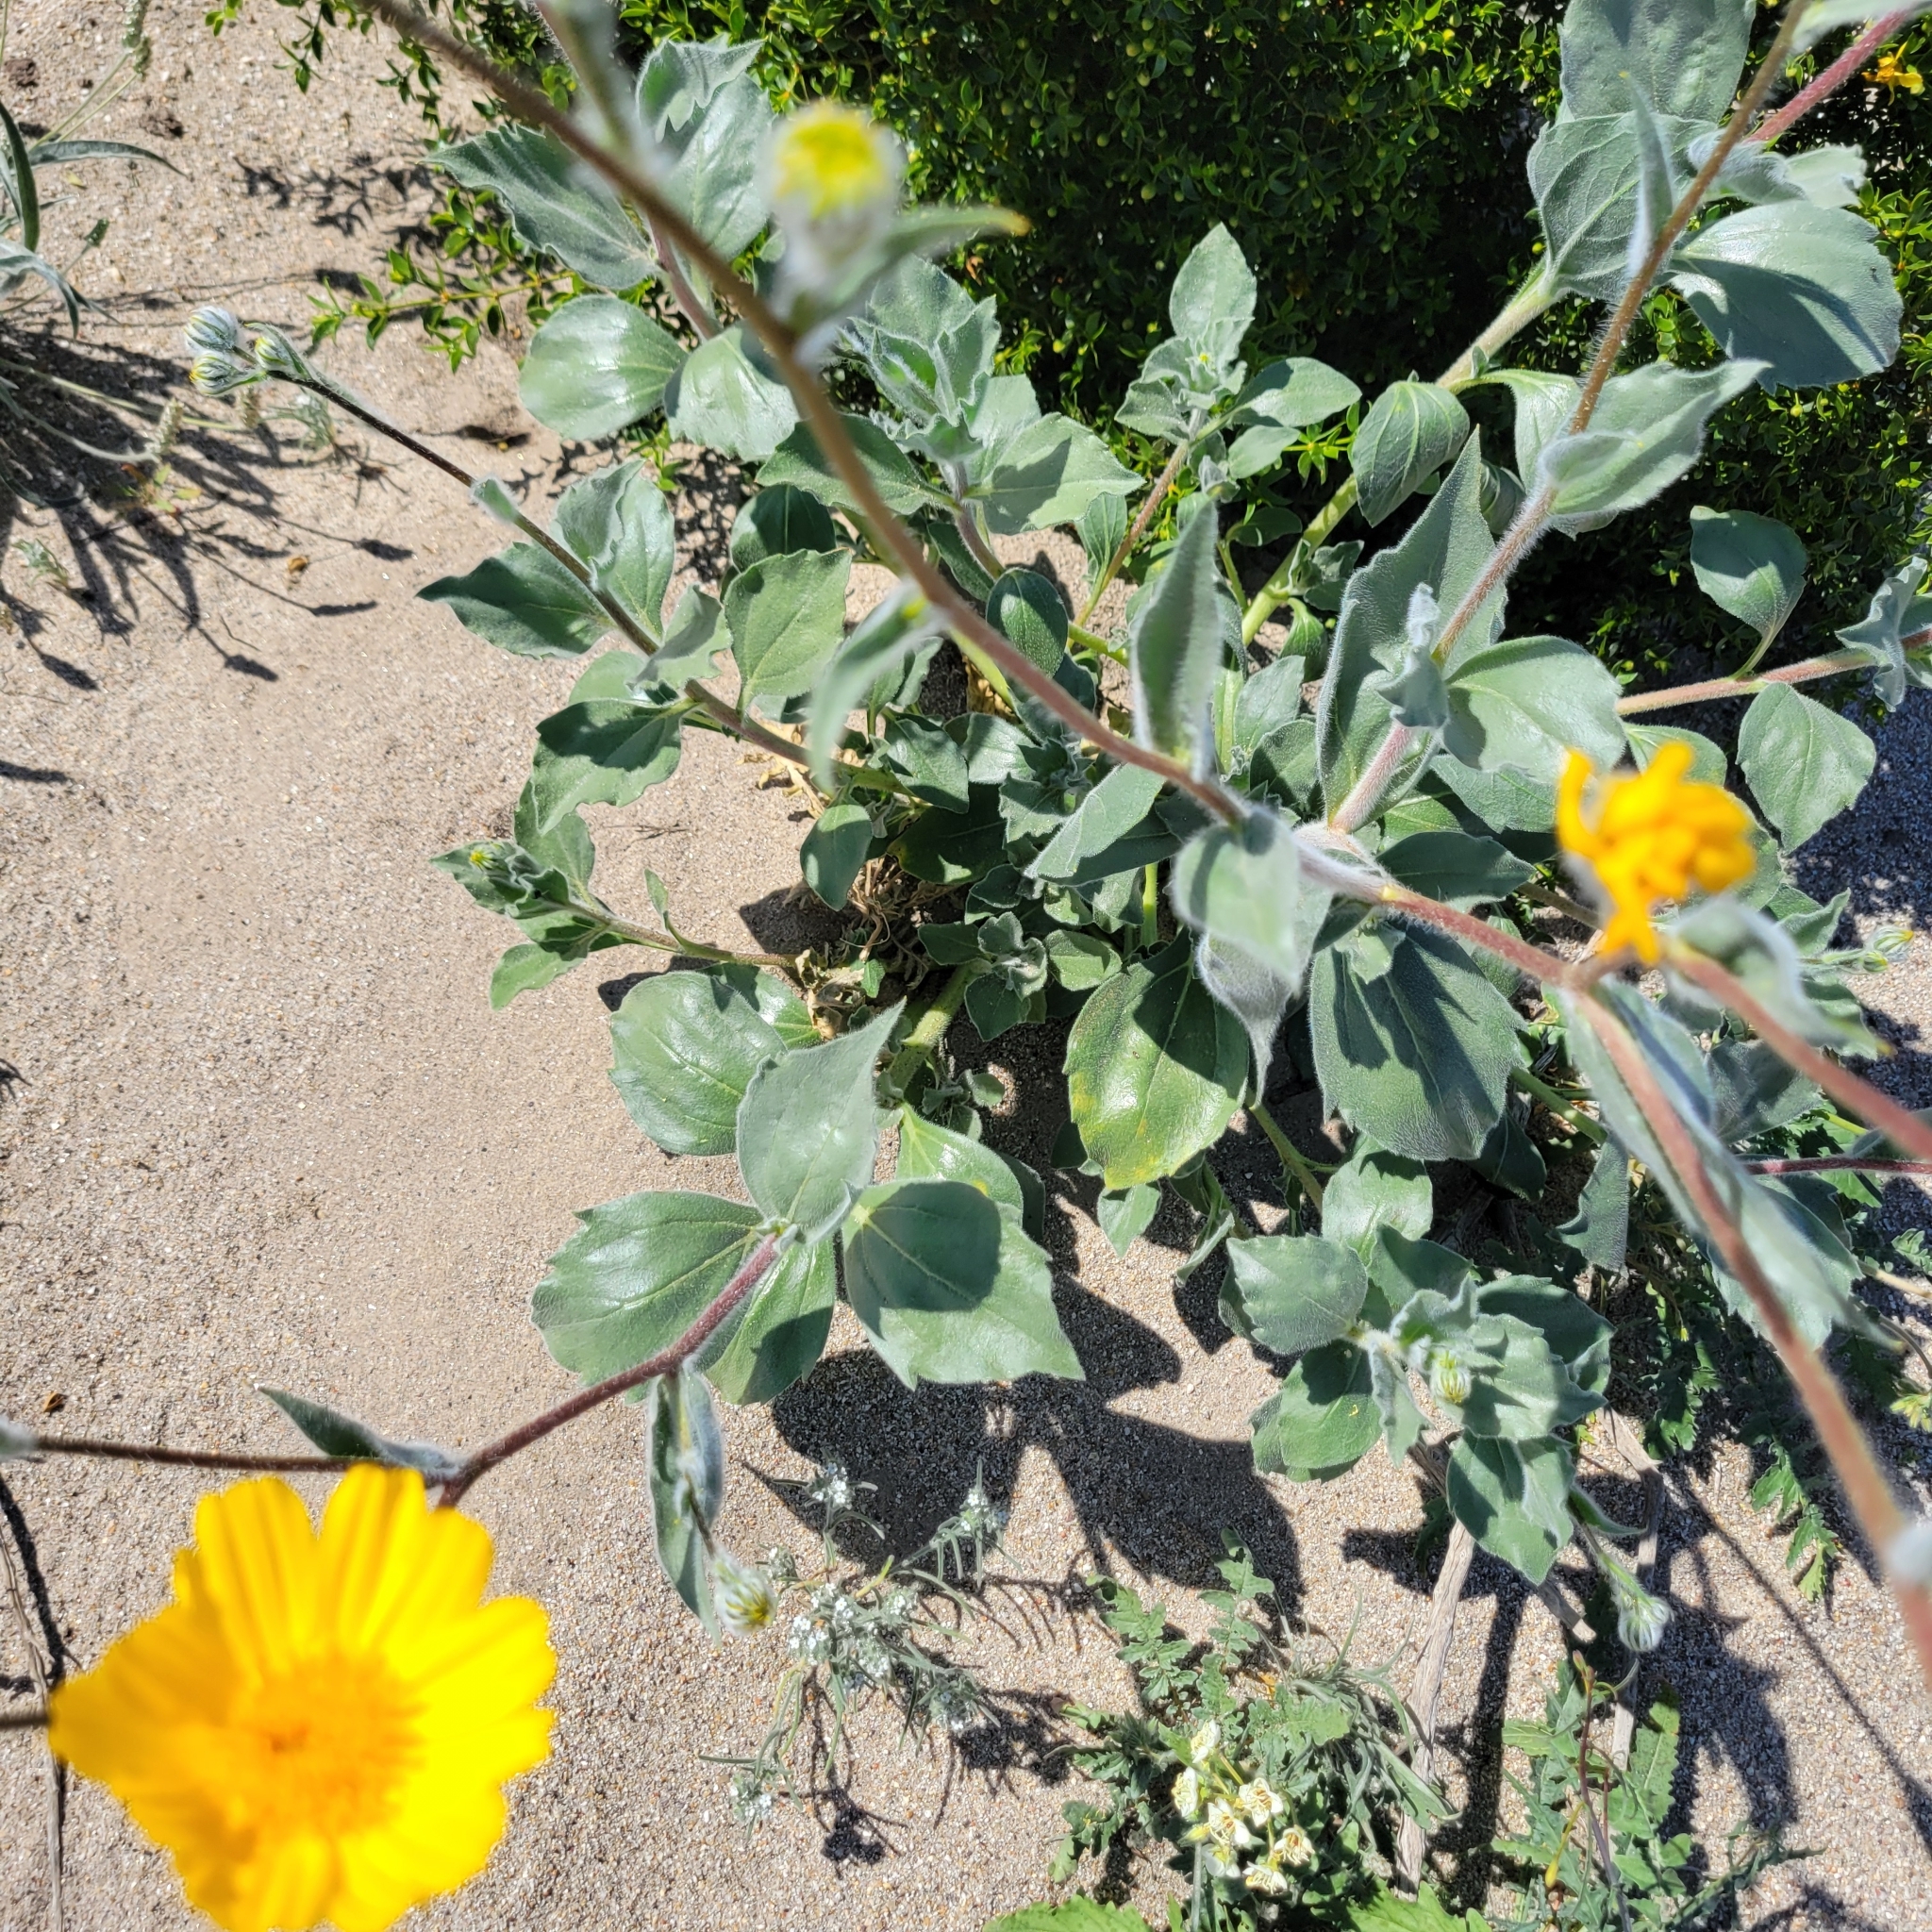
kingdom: Plantae
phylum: Tracheophyta
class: Magnoliopsida
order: Asterales
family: Asteraceae
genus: Geraea
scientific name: Geraea canescens
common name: Desert-gold
